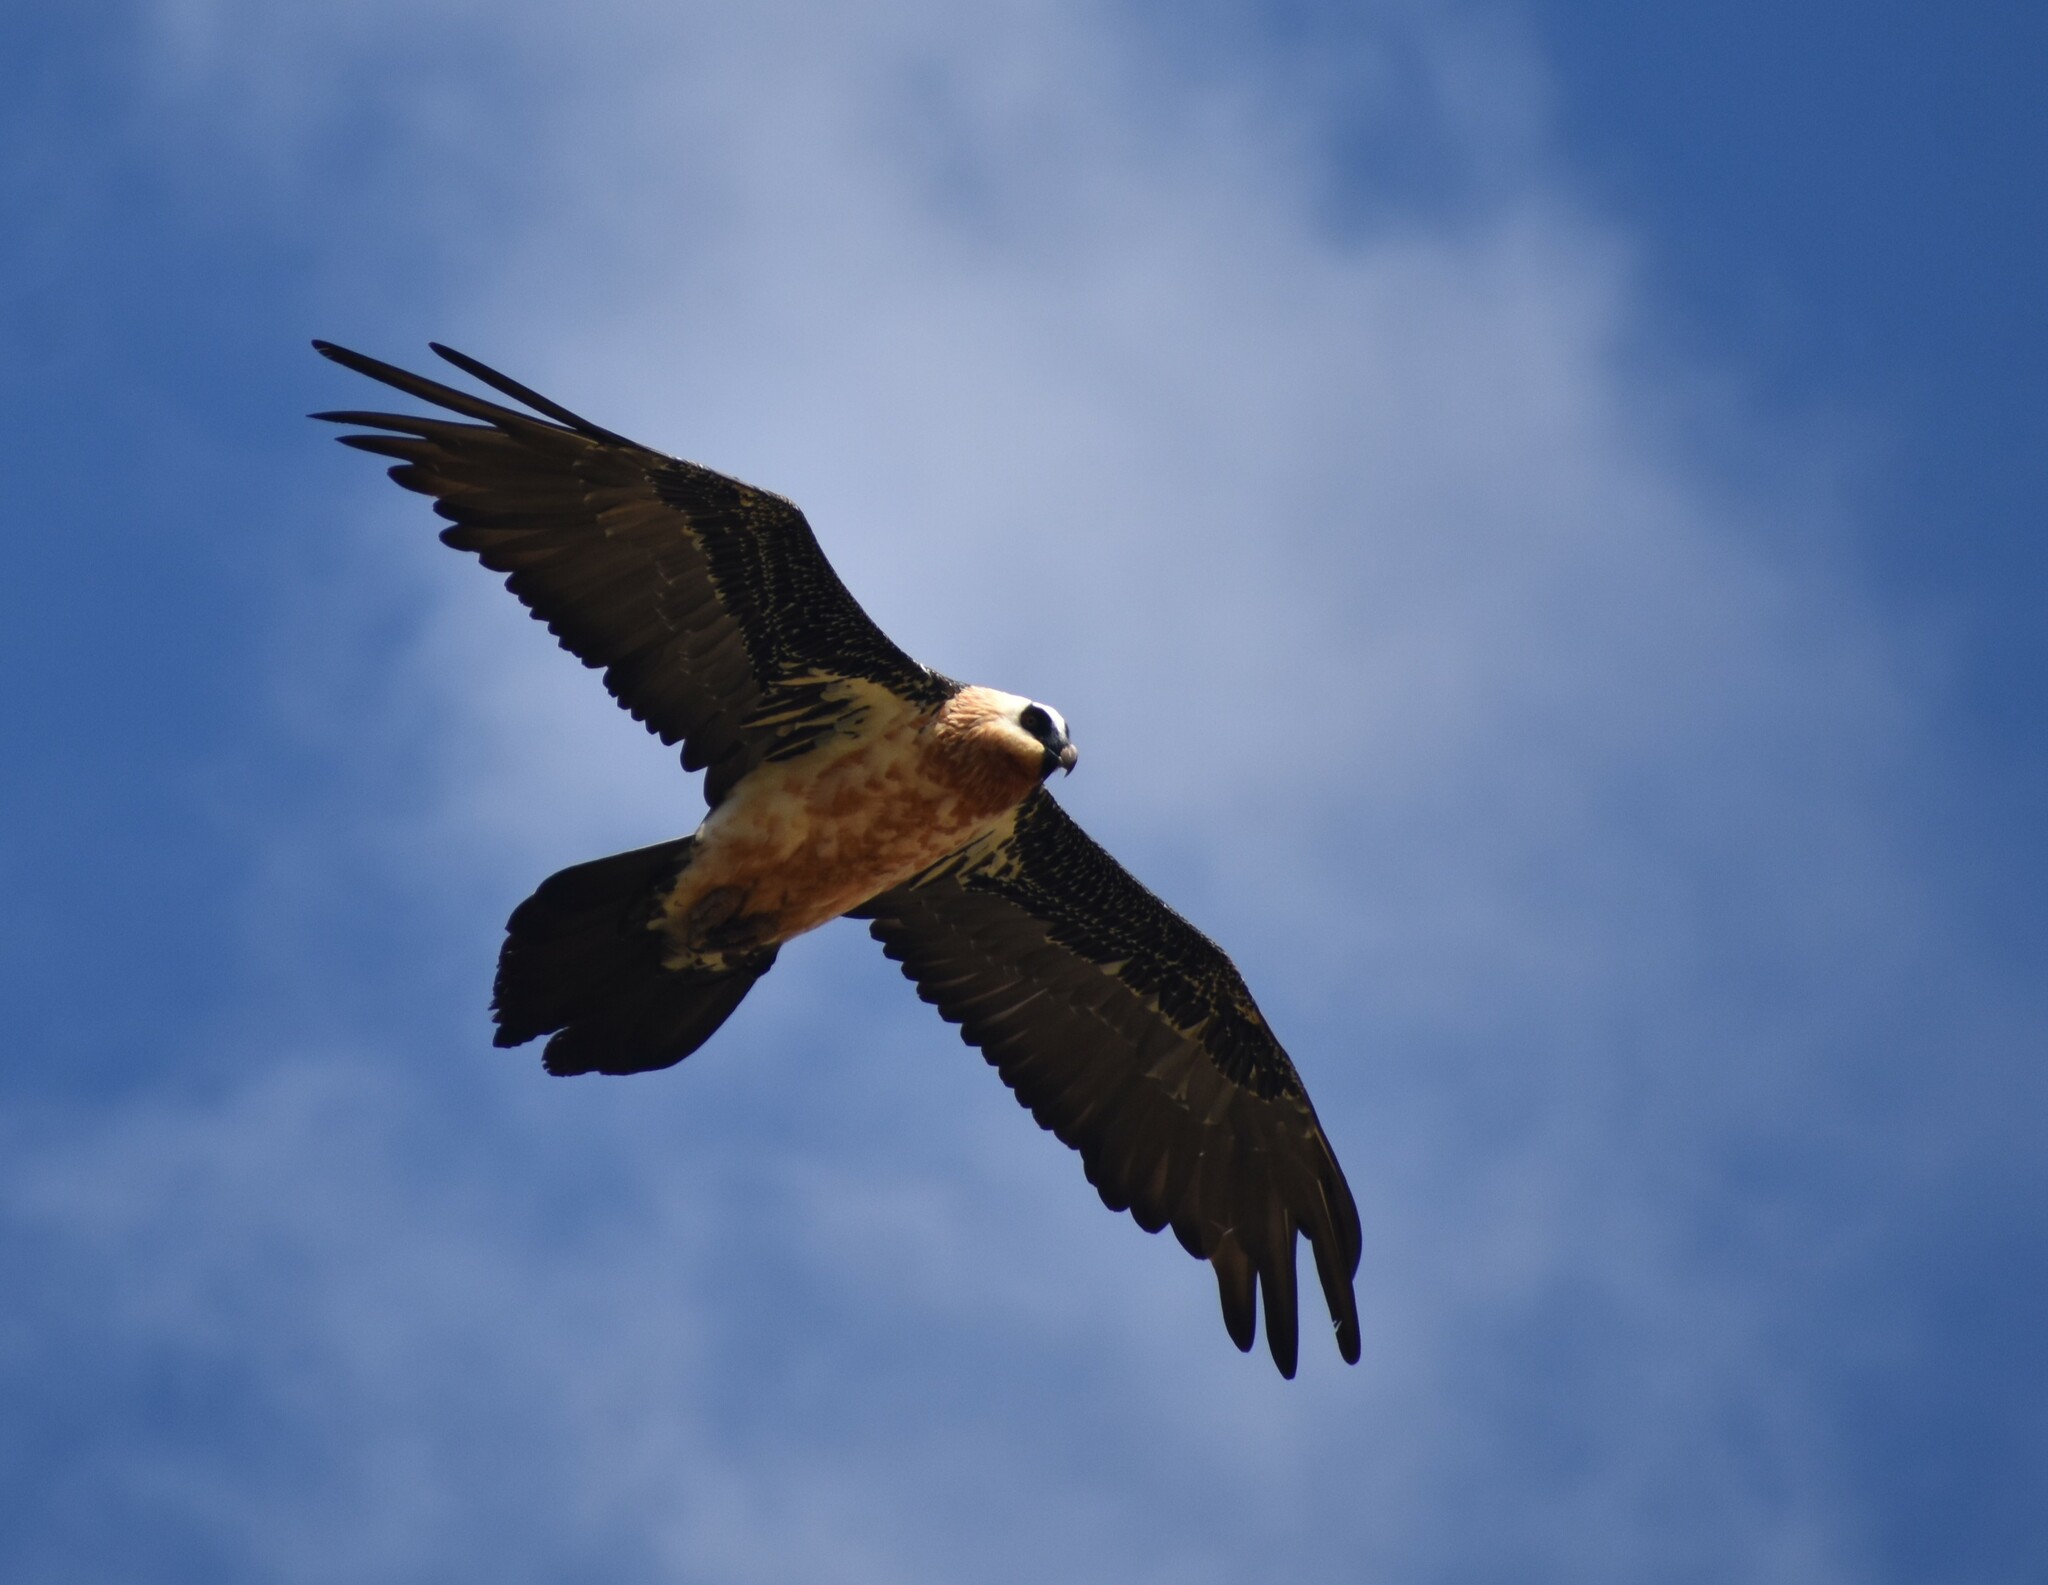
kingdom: Animalia
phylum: Chordata
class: Aves
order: Accipitriformes
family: Accipitridae
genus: Gypaetus
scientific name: Gypaetus barbatus
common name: Bearded vulture
